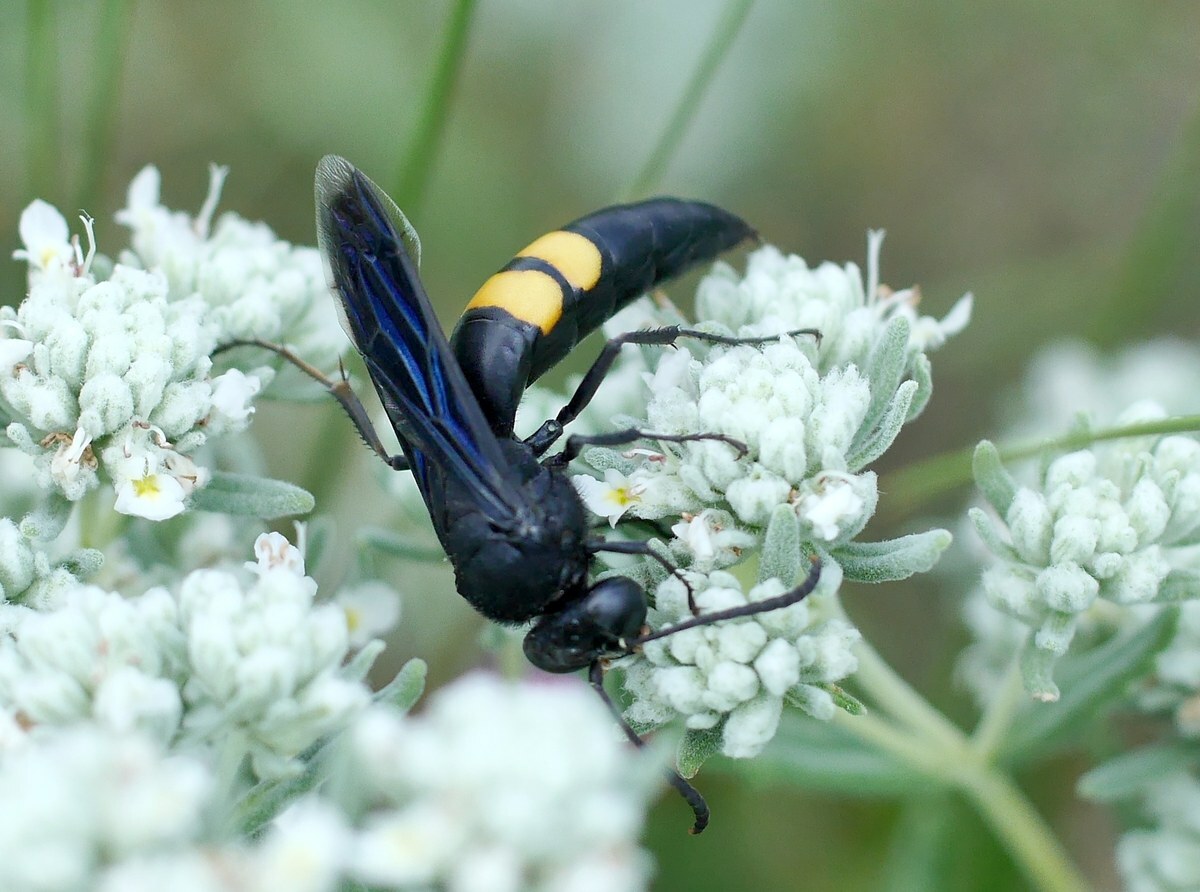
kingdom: Animalia
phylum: Arthropoda
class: Insecta
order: Hymenoptera
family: Crabronidae
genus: Stizoides
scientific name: Stizoides tridentatus
